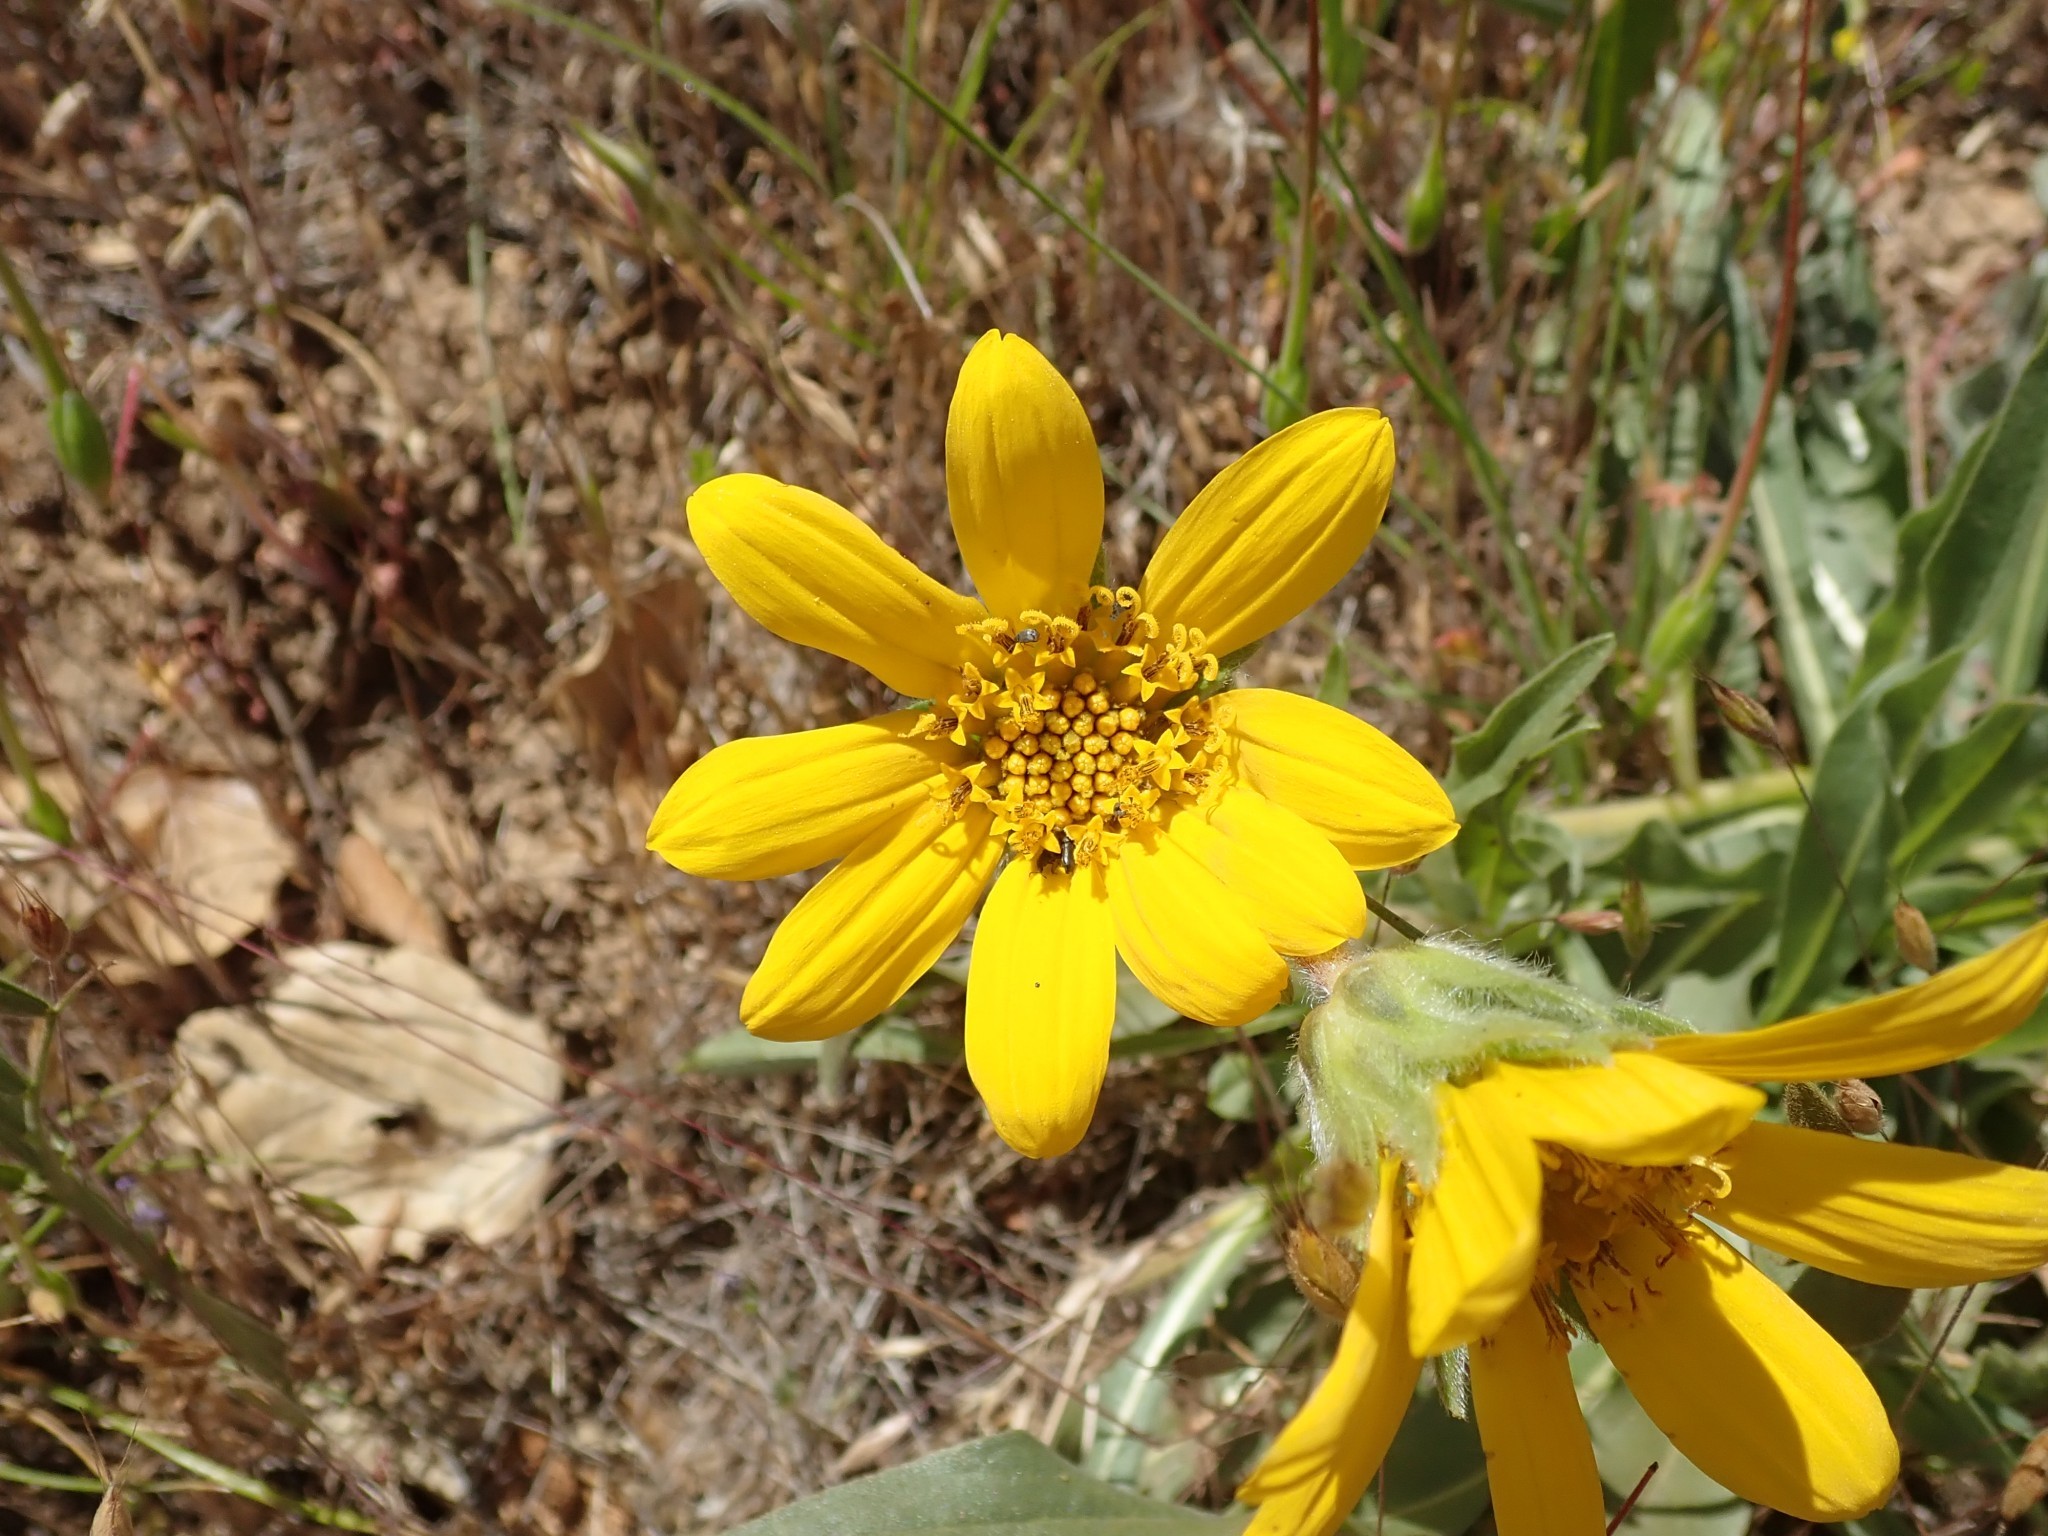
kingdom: Plantae
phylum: Tracheophyta
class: Magnoliopsida
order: Asterales
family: Asteraceae
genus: Wyethia
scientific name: Wyethia angustifolia
